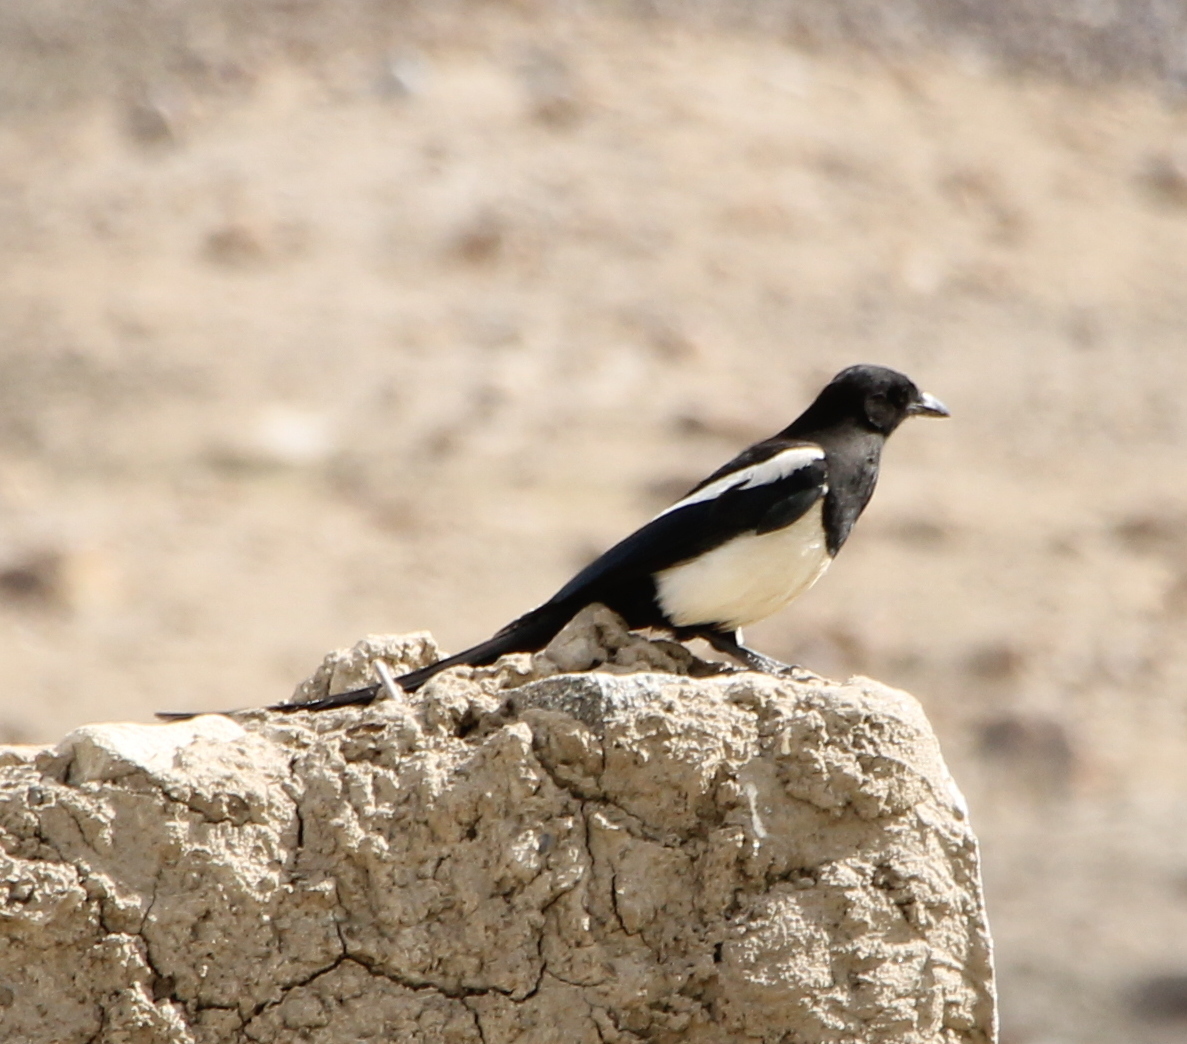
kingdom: Animalia
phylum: Chordata
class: Aves
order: Passeriformes
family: Corvidae
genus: Pica
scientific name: Pica pica
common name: Eurasian magpie
